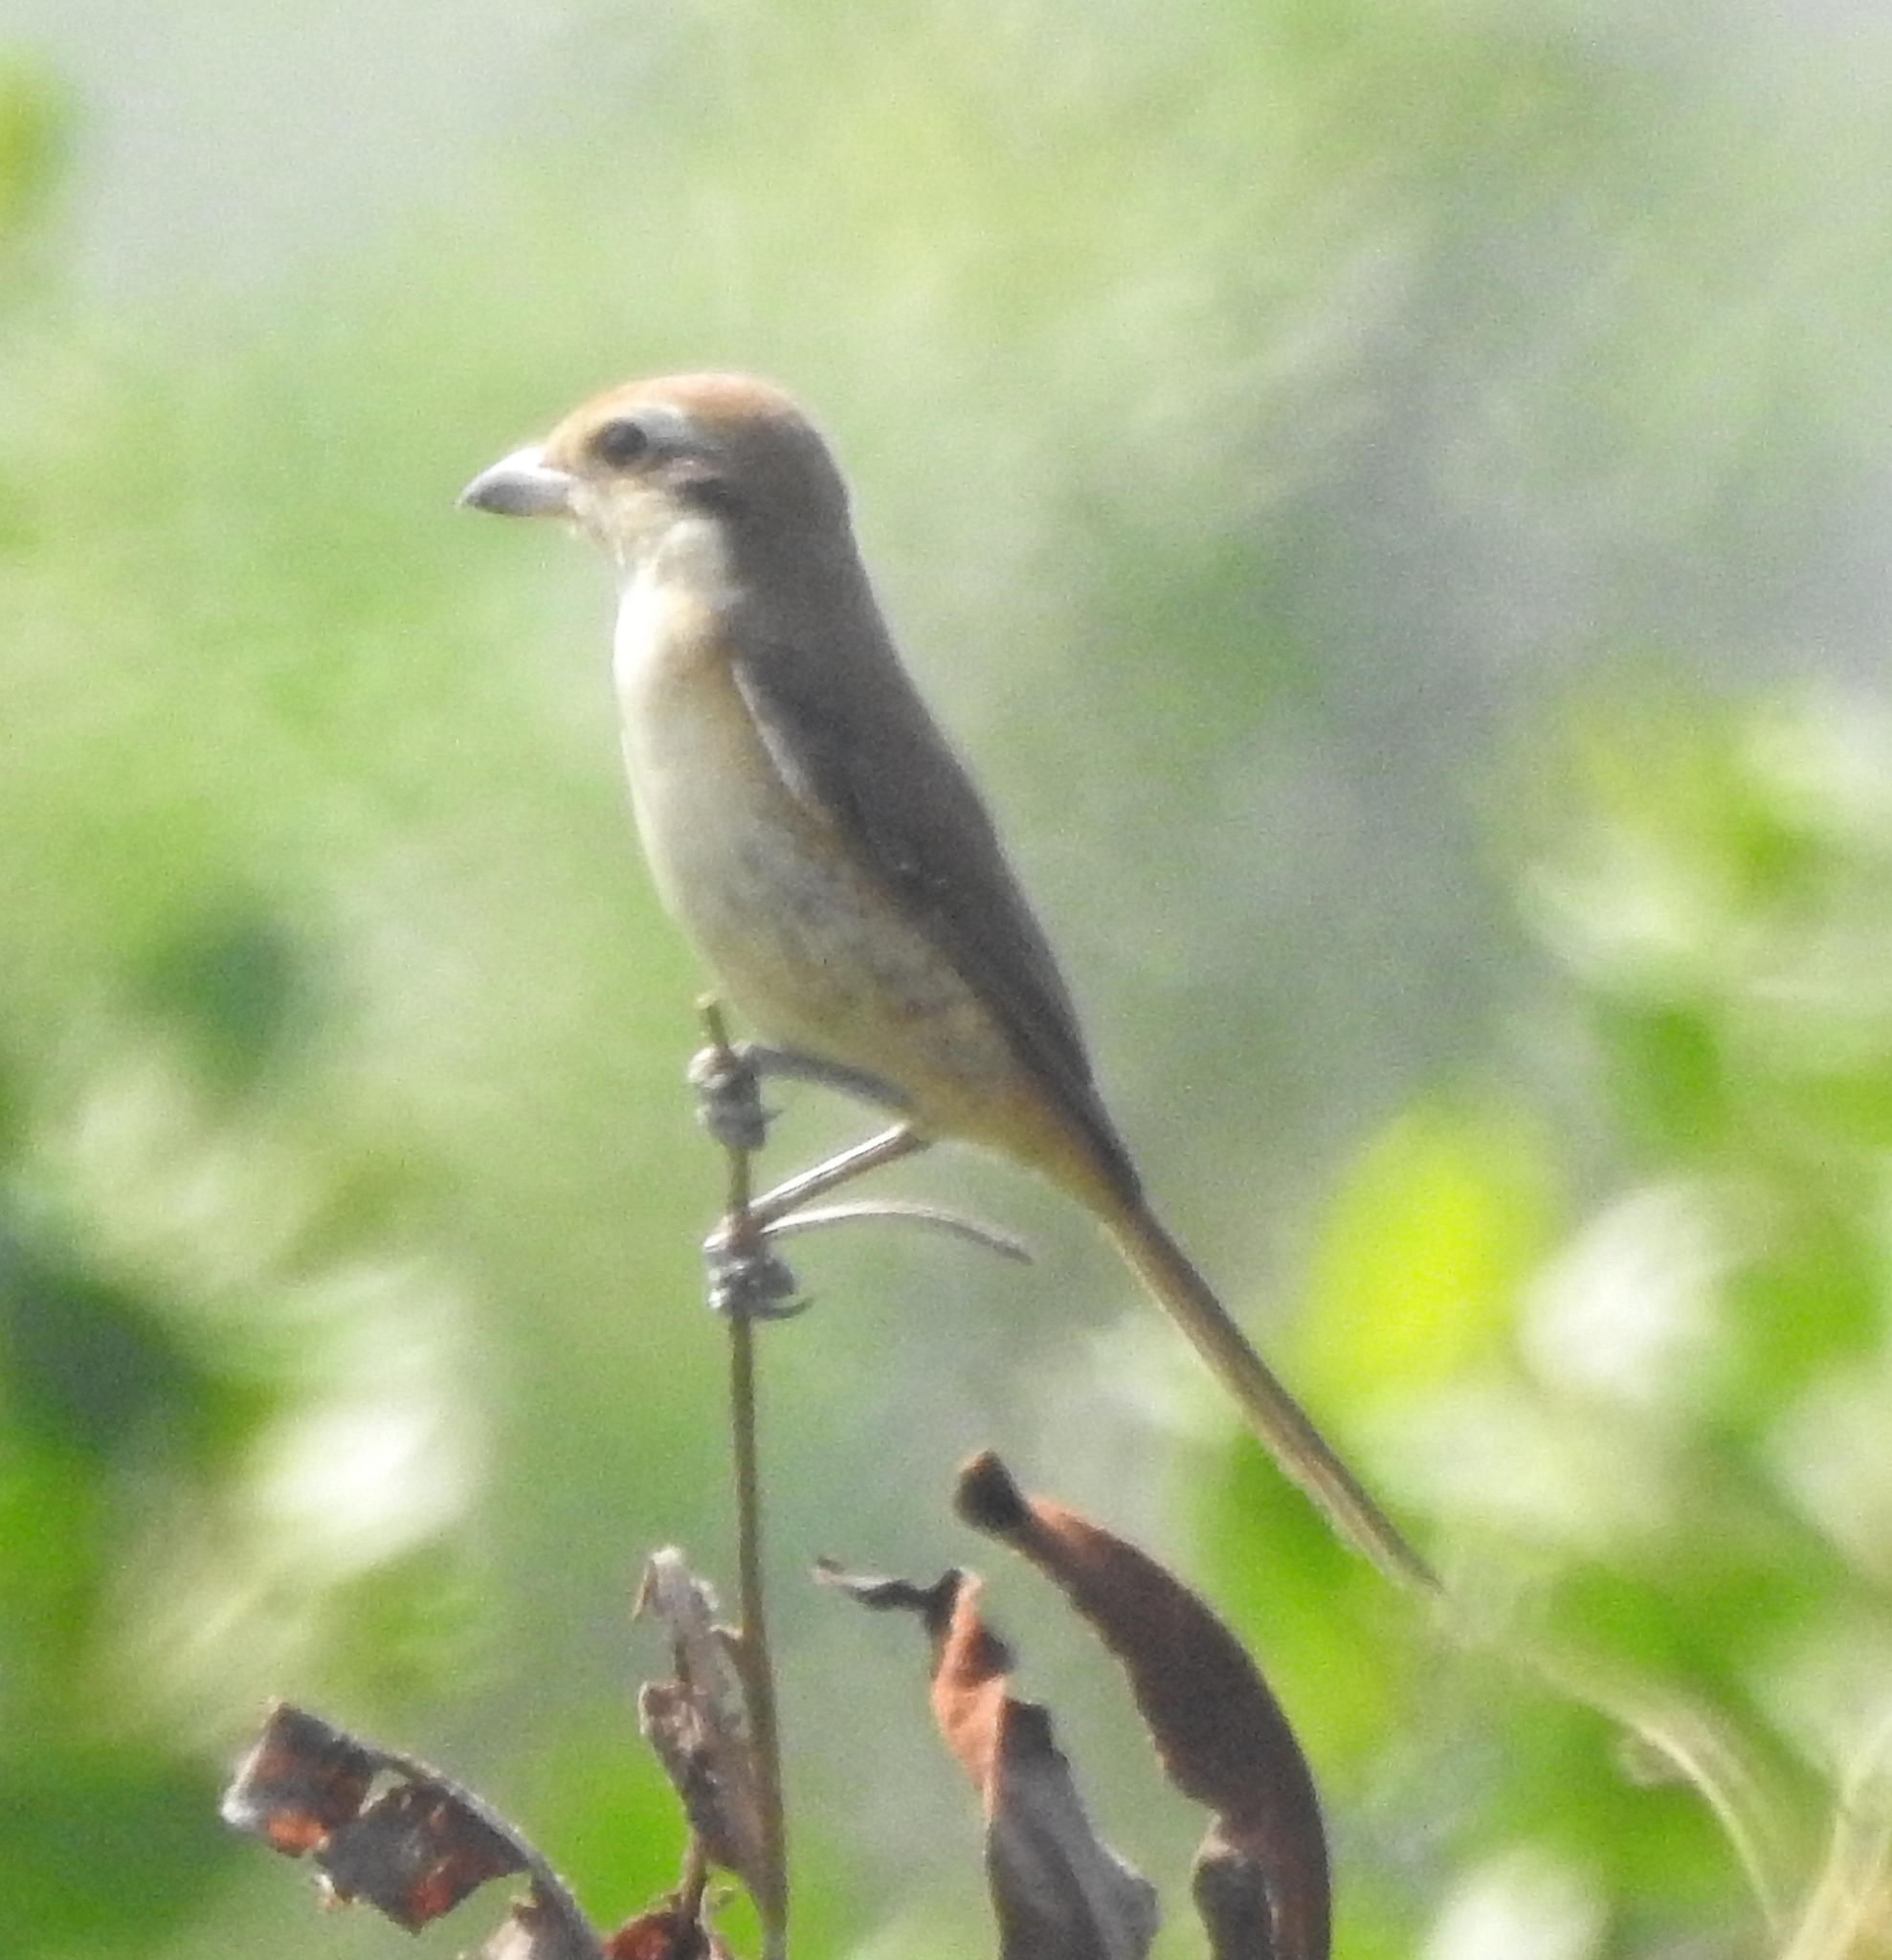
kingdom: Animalia
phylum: Chordata
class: Aves
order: Passeriformes
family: Laniidae
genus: Lanius
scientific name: Lanius cristatus
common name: Brown shrike
